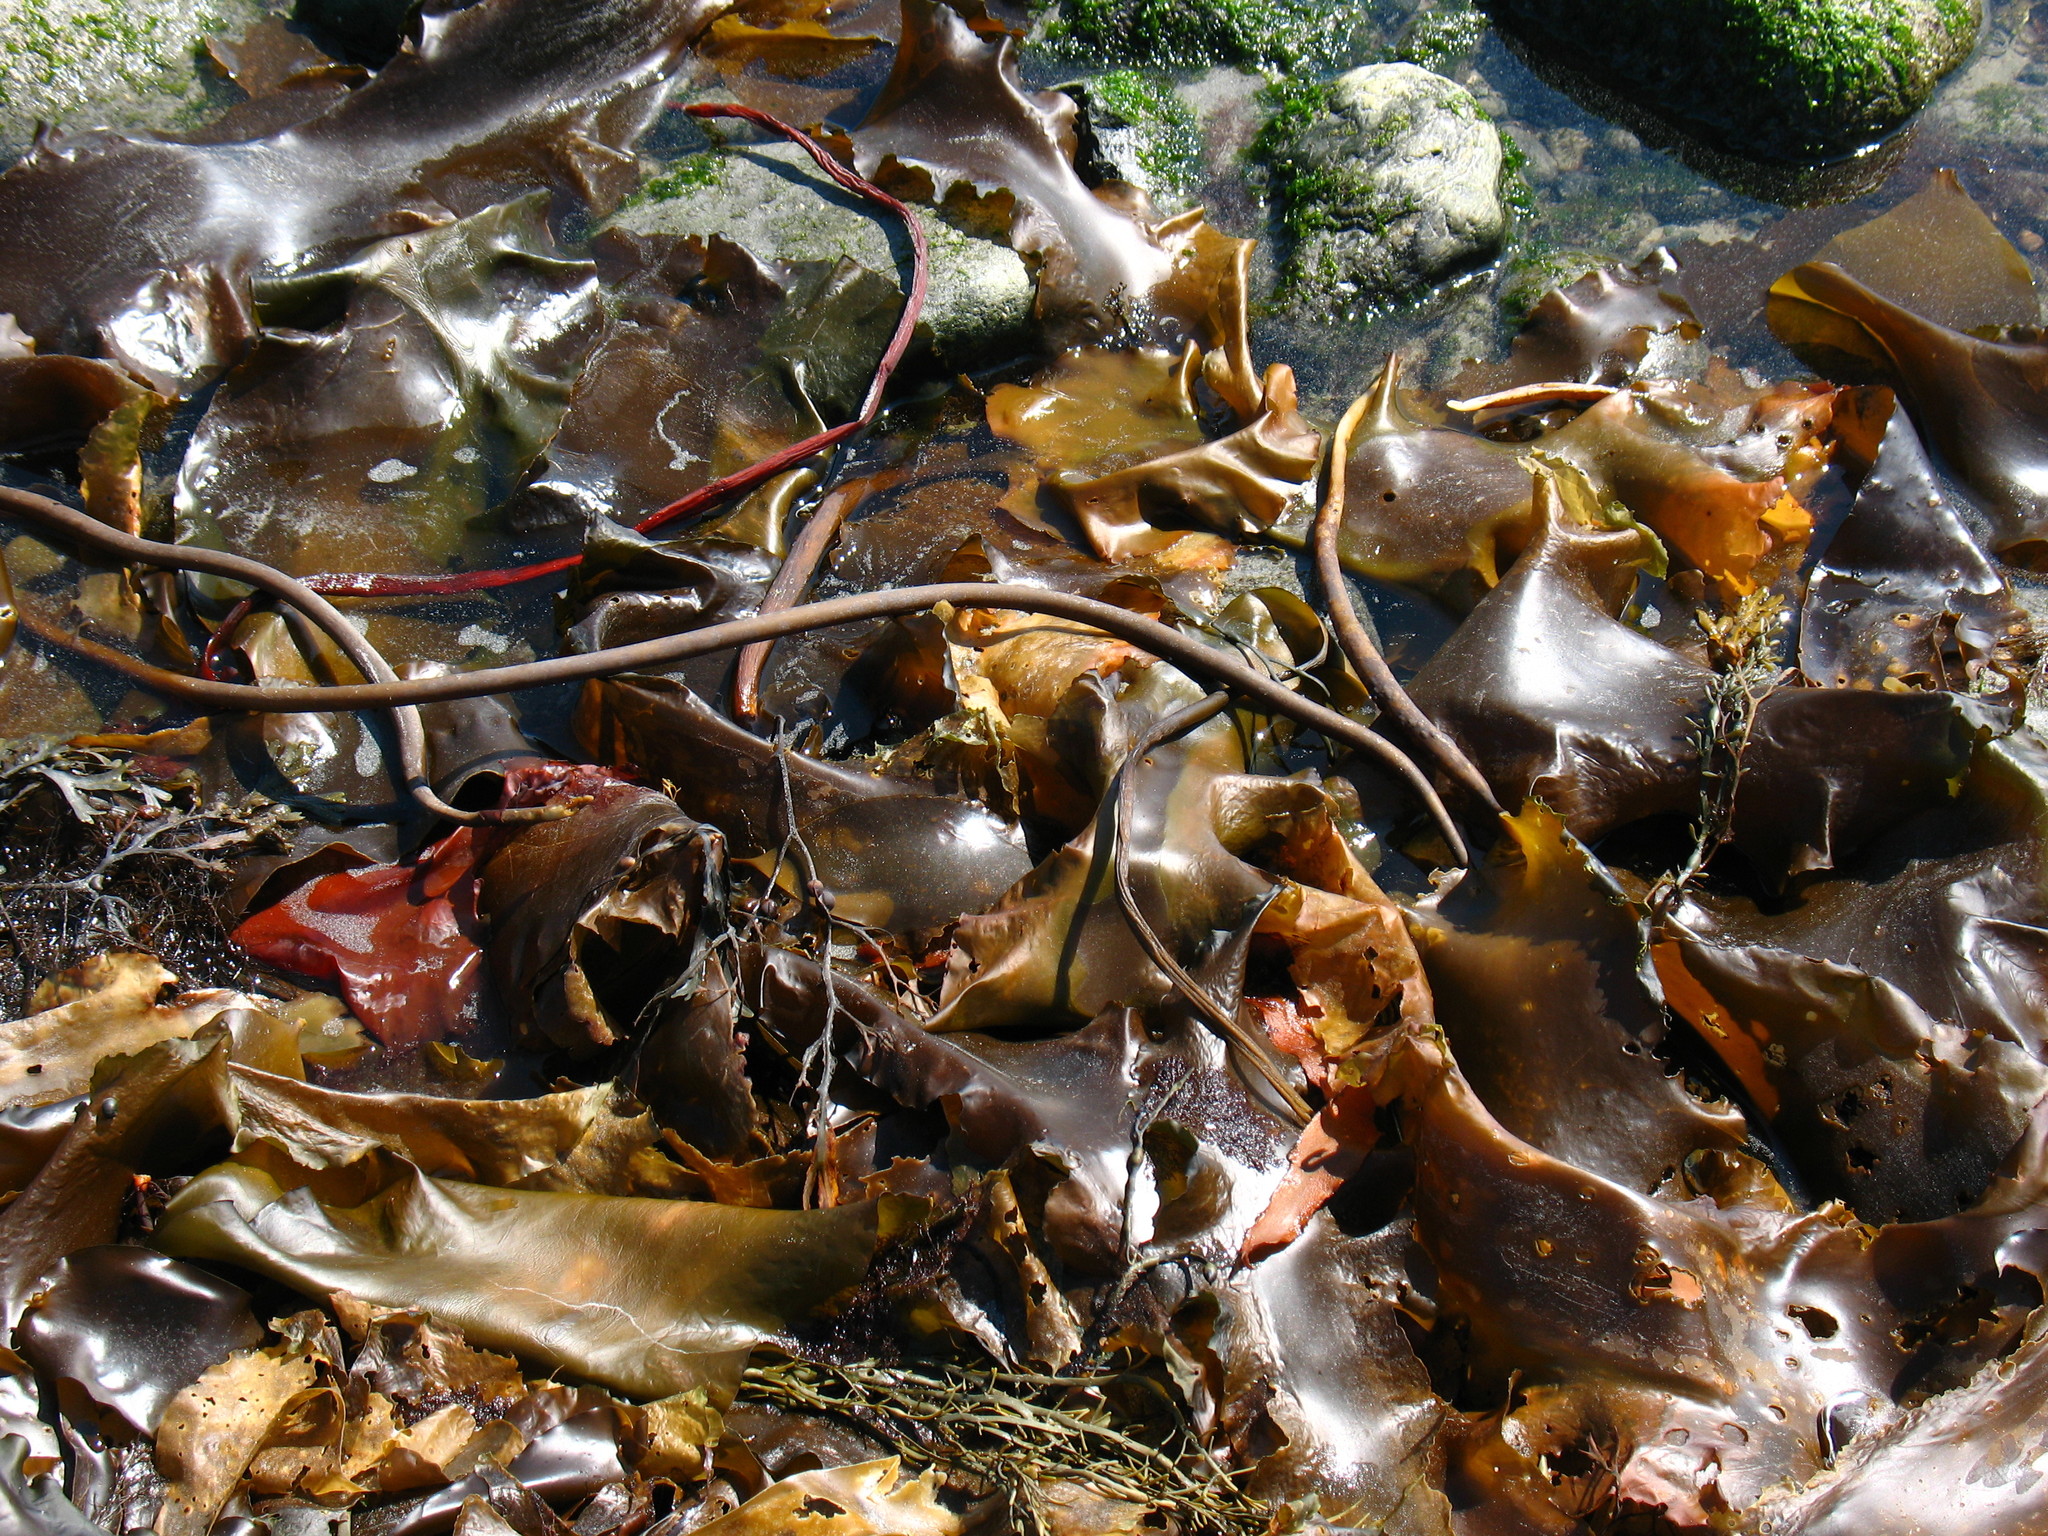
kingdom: Chromista
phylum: Ochrophyta
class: Phaeophyceae
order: Laminariales
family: Laminariaceae
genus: Saccharina
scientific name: Saccharina latissima
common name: Poor man's weather glass
